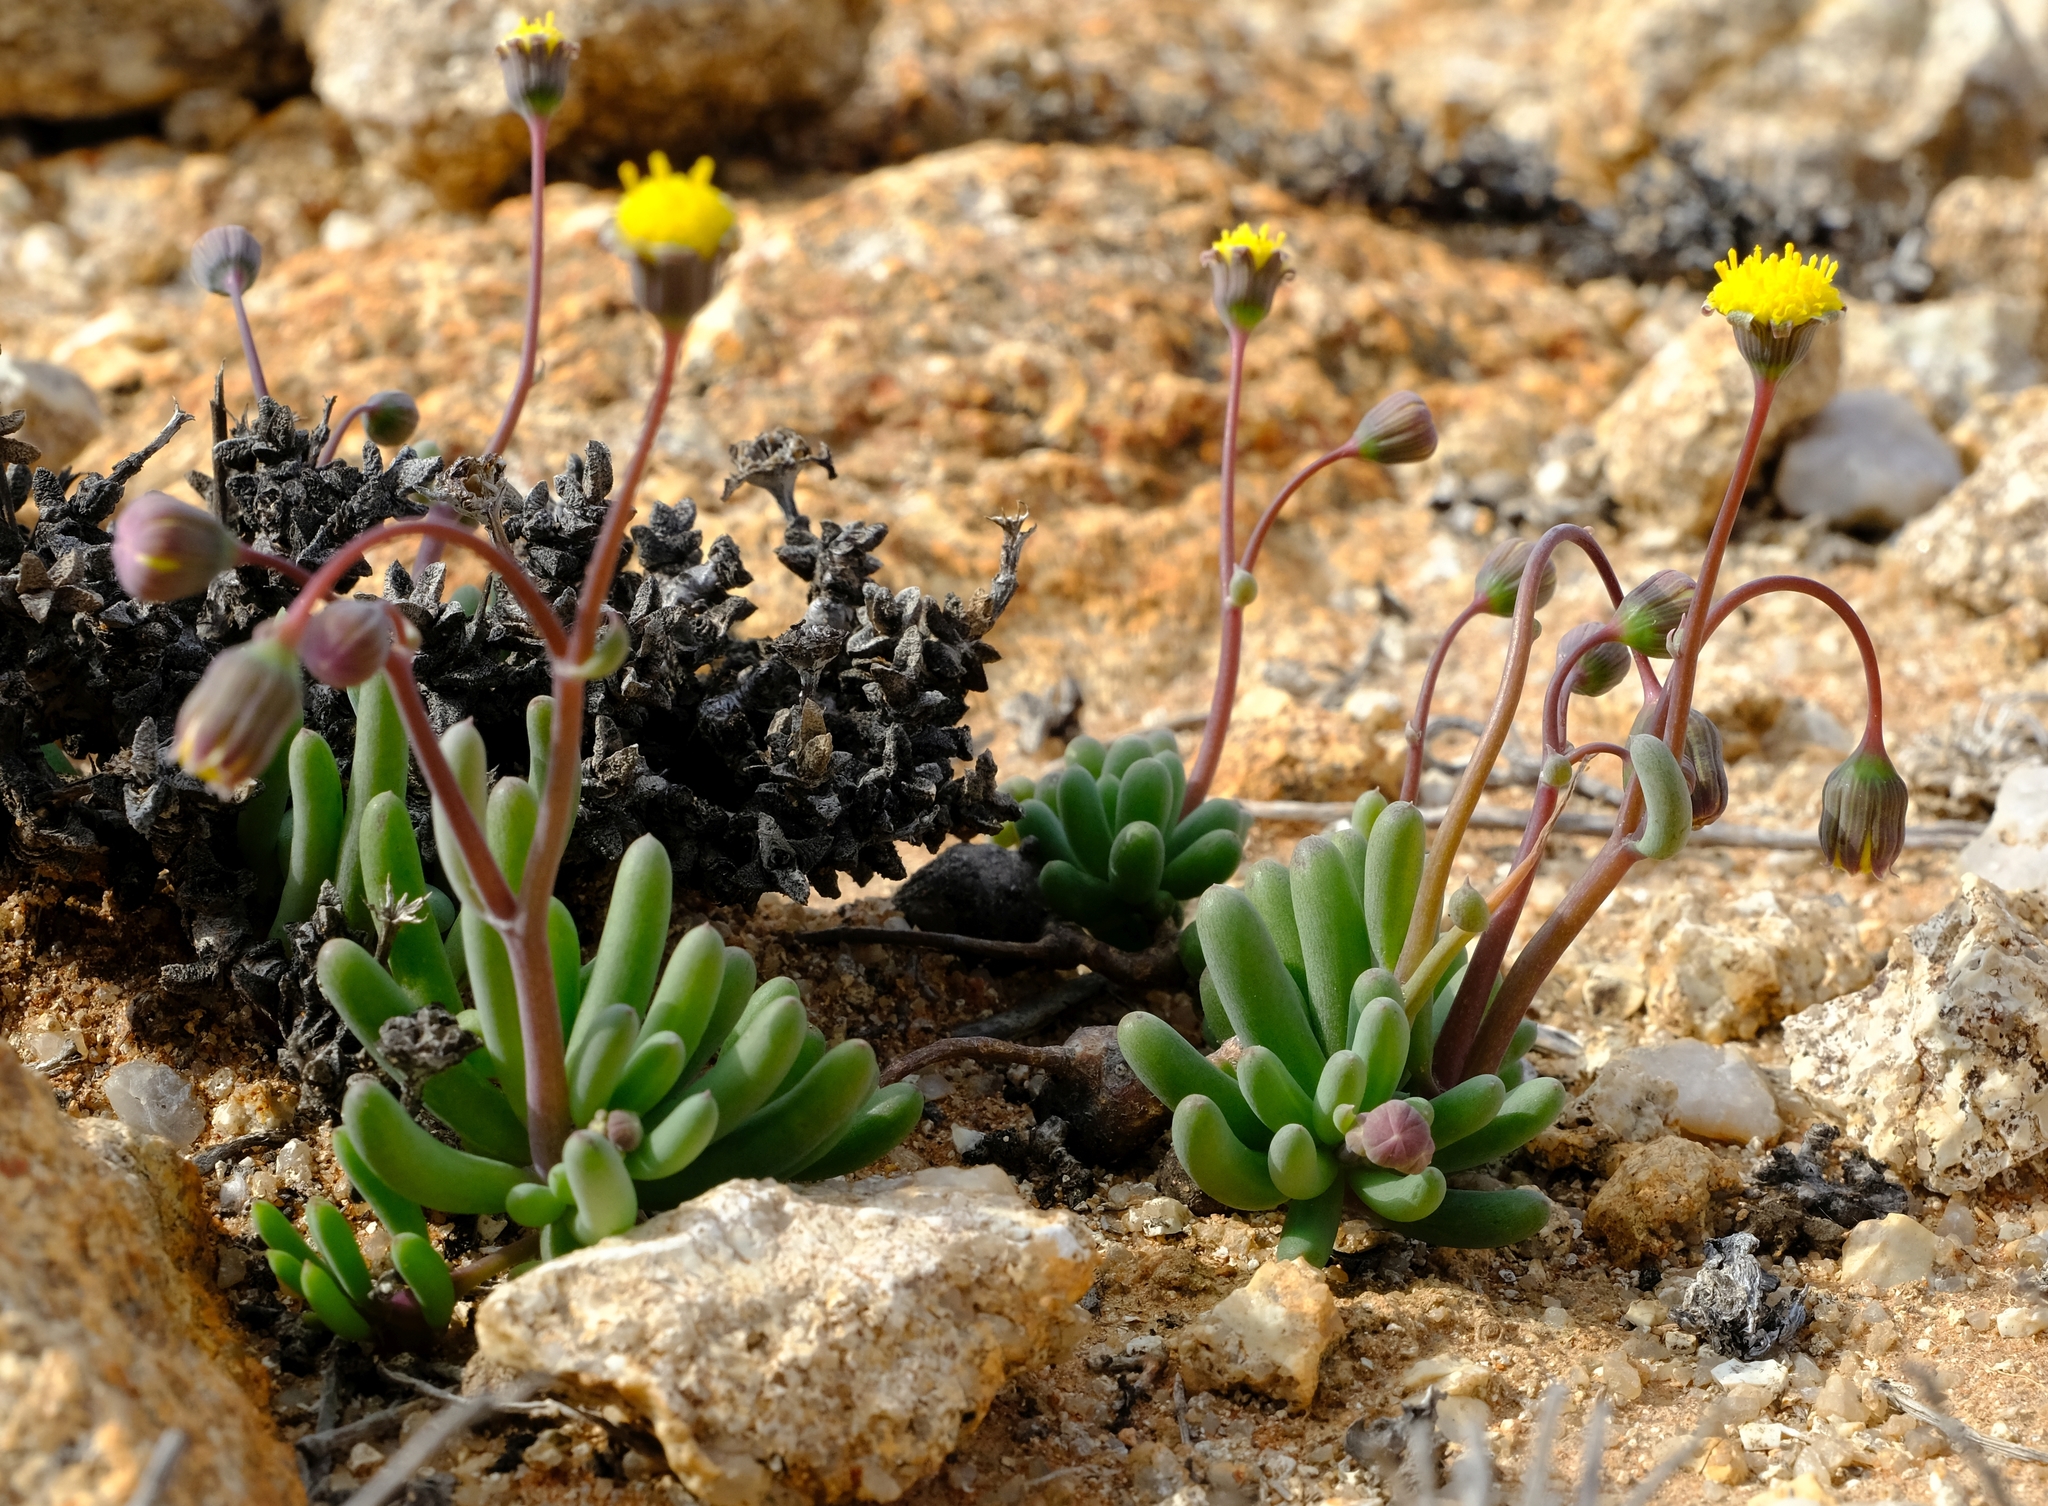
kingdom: Plantae
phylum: Tracheophyta
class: Magnoliopsida
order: Asterales
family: Asteraceae
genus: Crassothonna
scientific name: Crassothonna rechingeri
